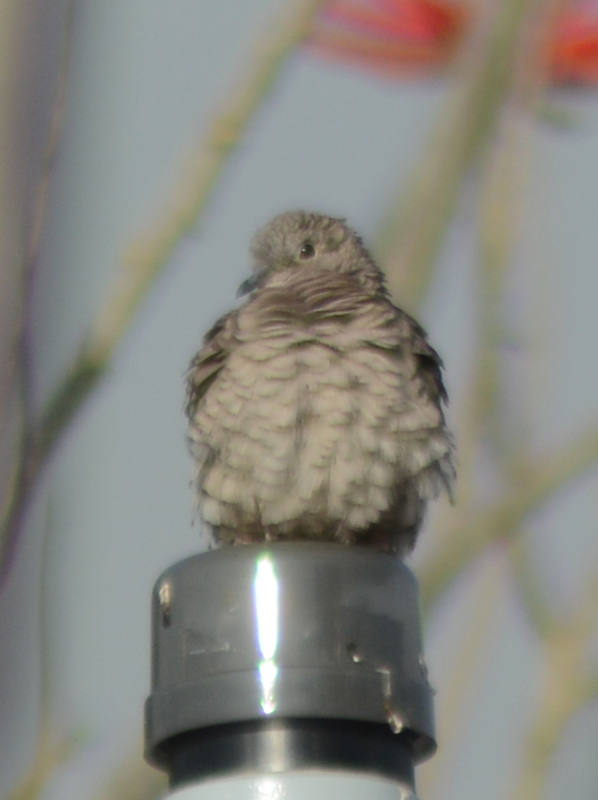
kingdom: Animalia
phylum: Chordata
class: Aves
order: Columbiformes
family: Columbidae
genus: Columbina
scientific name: Columbina inca
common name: Inca dove
